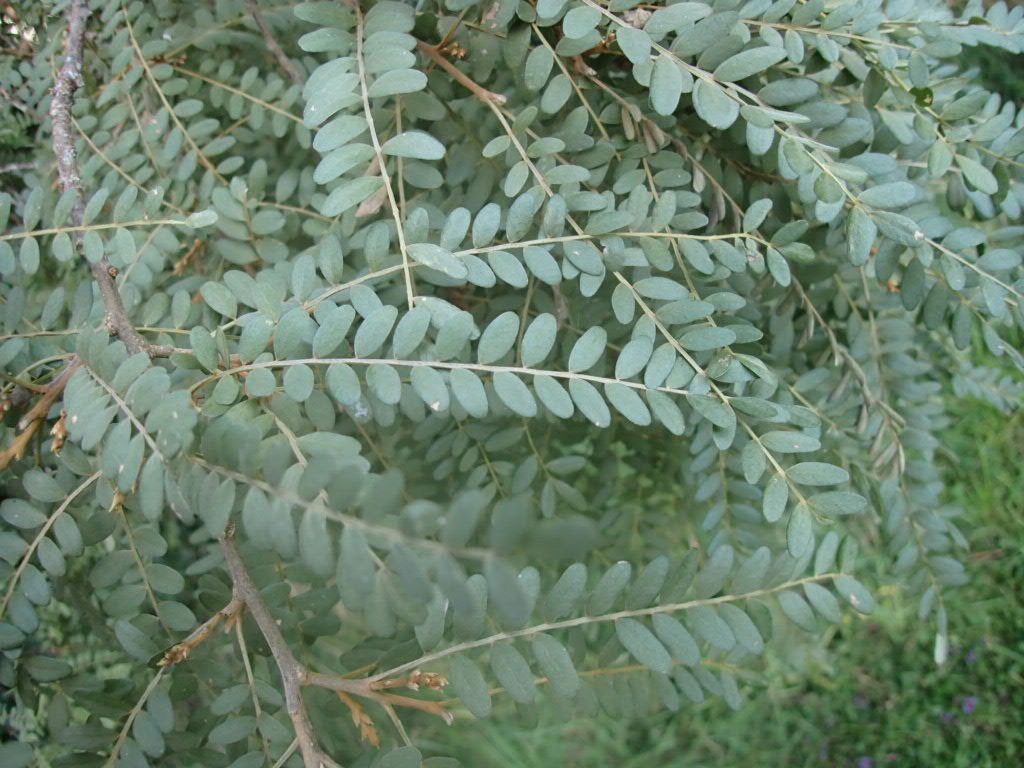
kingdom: Plantae
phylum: Tracheophyta
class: Magnoliopsida
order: Fabales
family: Fabaceae
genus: Sophora
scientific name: Sophora tetraptera
